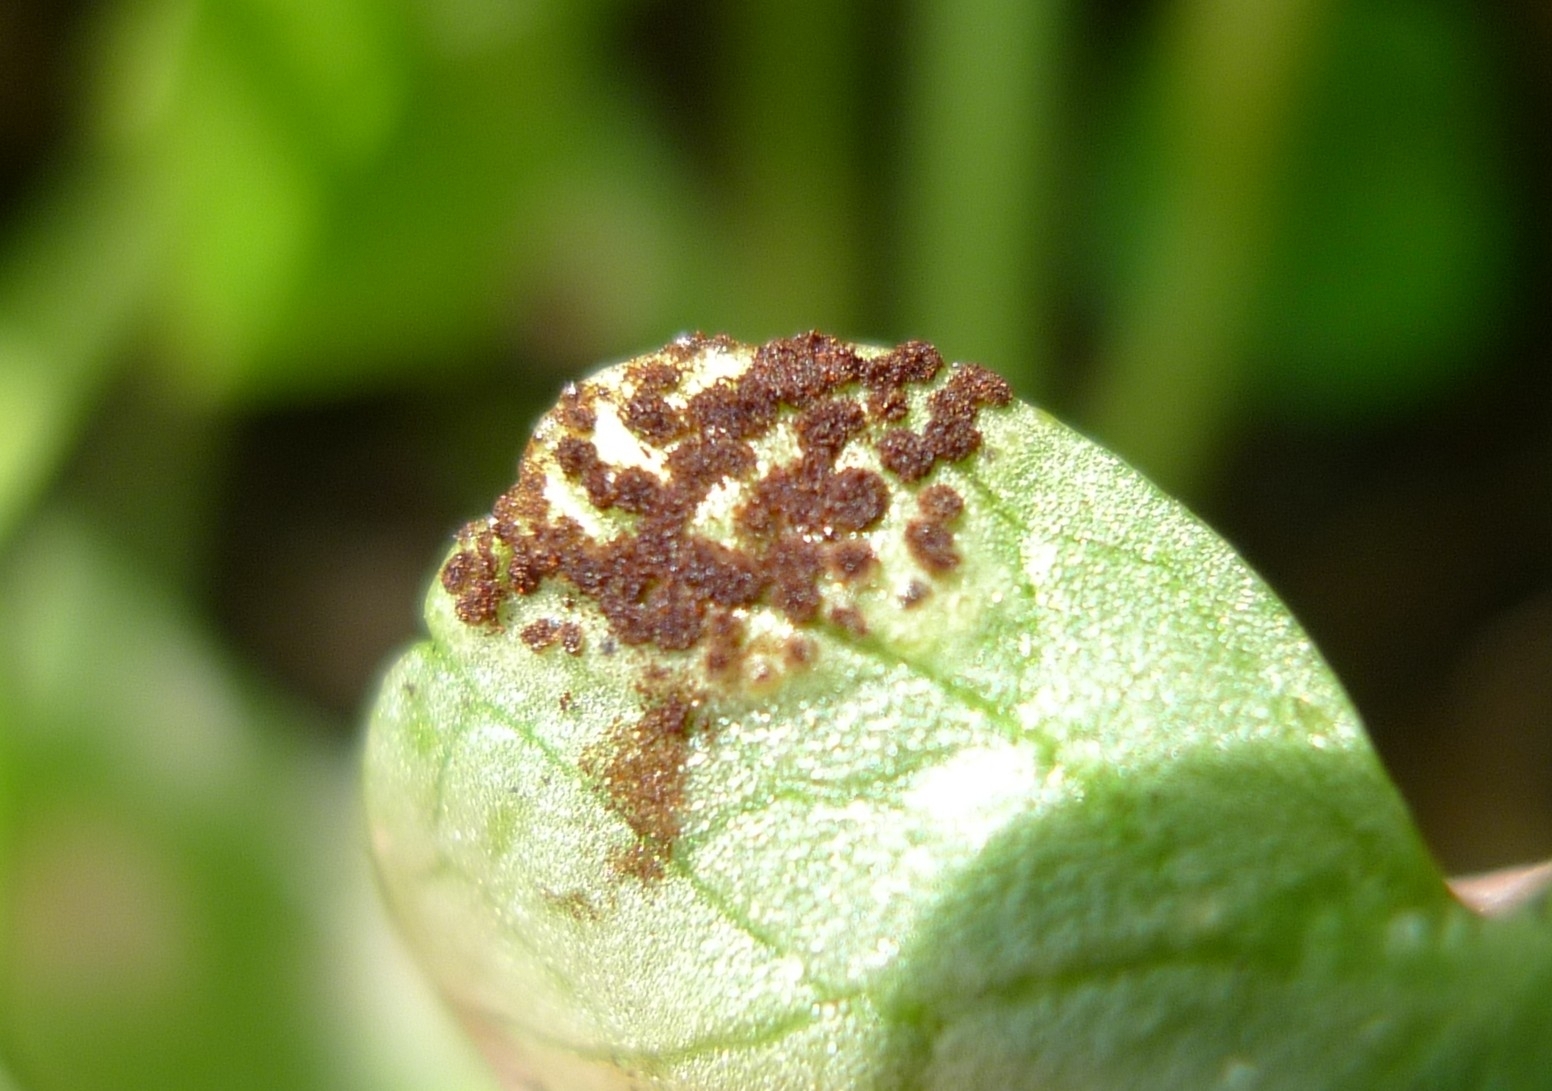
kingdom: Fungi
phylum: Basidiomycota
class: Pucciniomycetes
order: Pucciniales
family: Pucciniaceae
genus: Uromyces
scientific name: Uromyces ficariae
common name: Bitter chocolate rust
